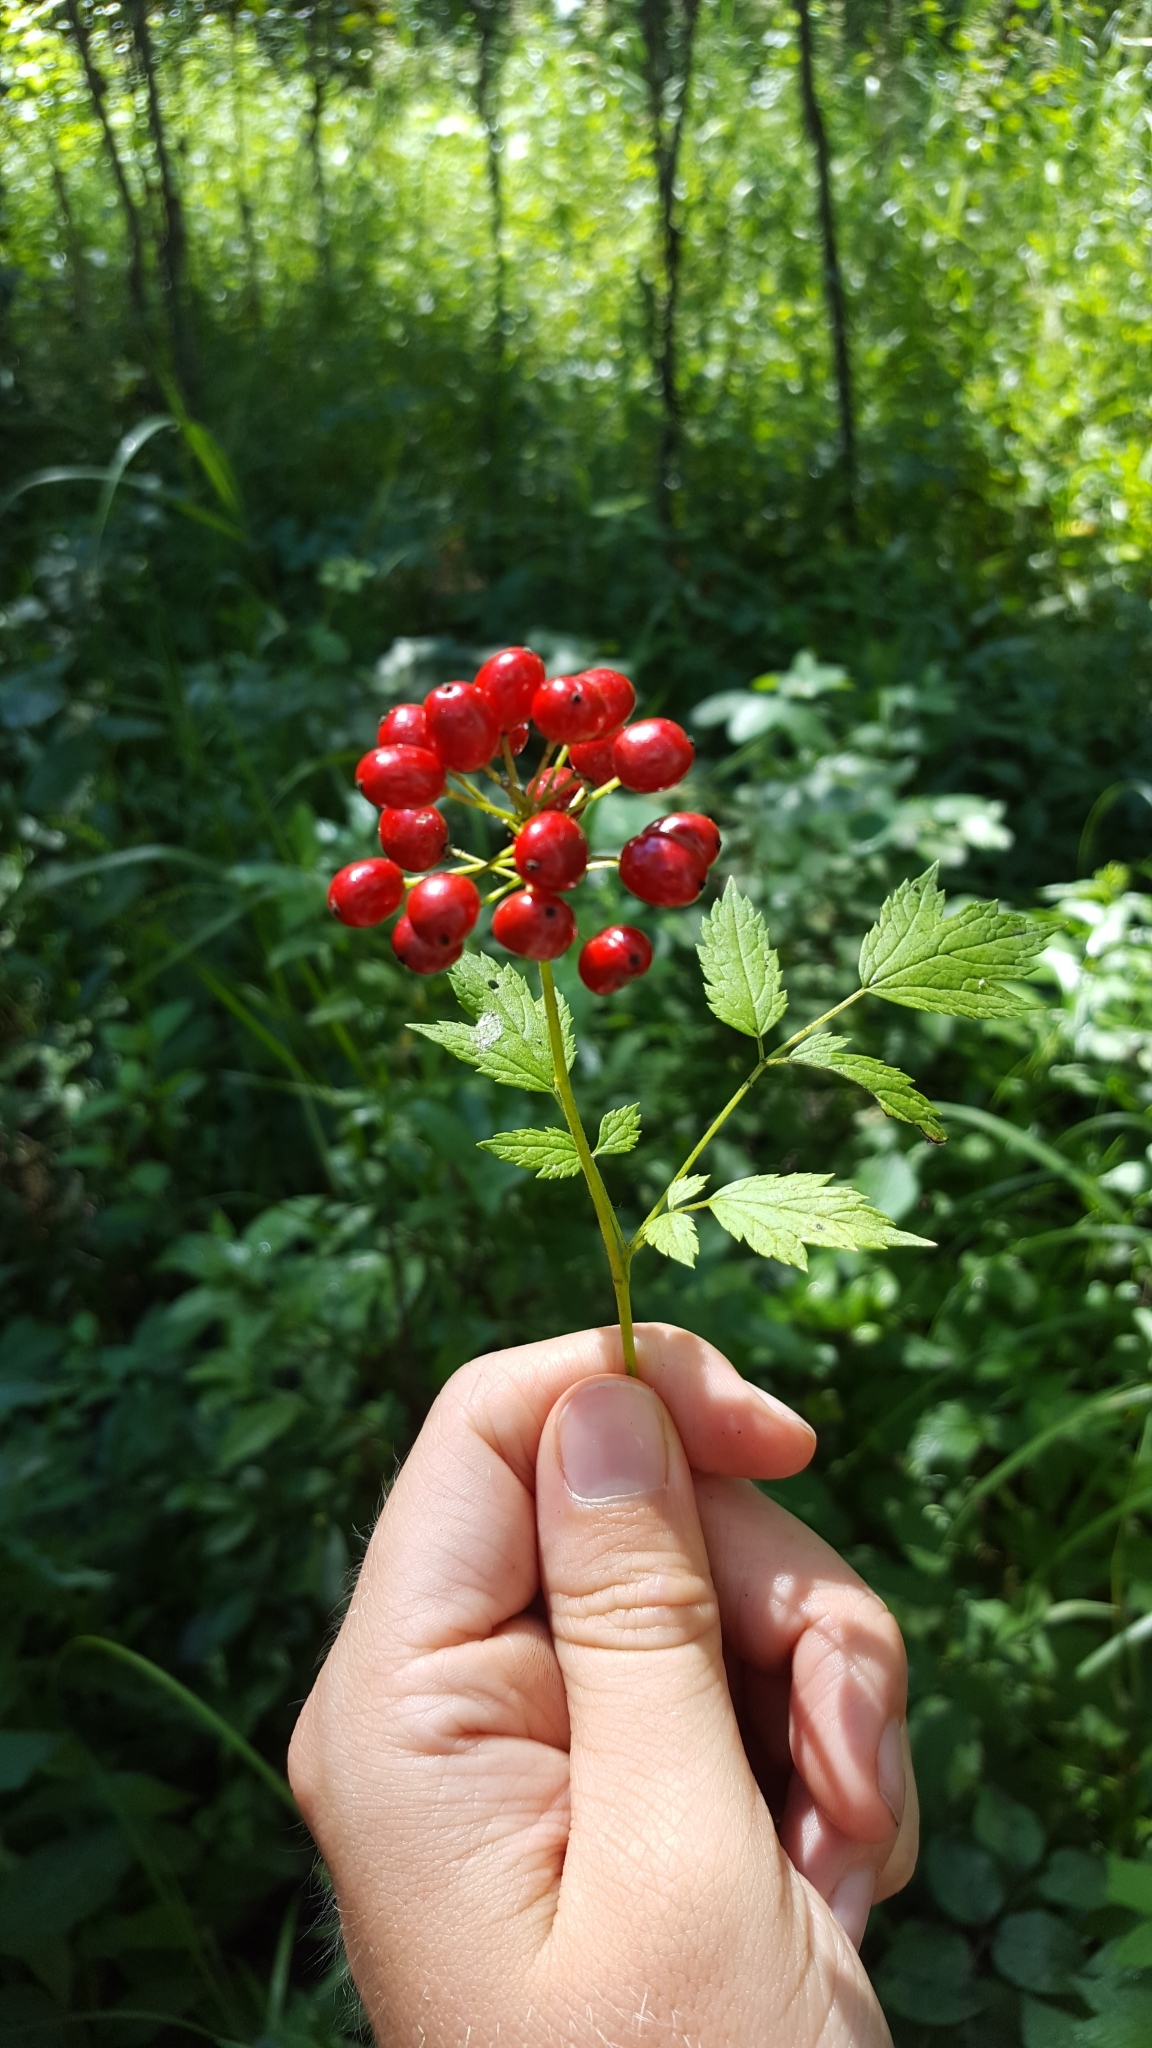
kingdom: Plantae
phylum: Tracheophyta
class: Magnoliopsida
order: Ranunculales
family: Ranunculaceae
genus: Actaea
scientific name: Actaea rubra
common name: Red baneberry
